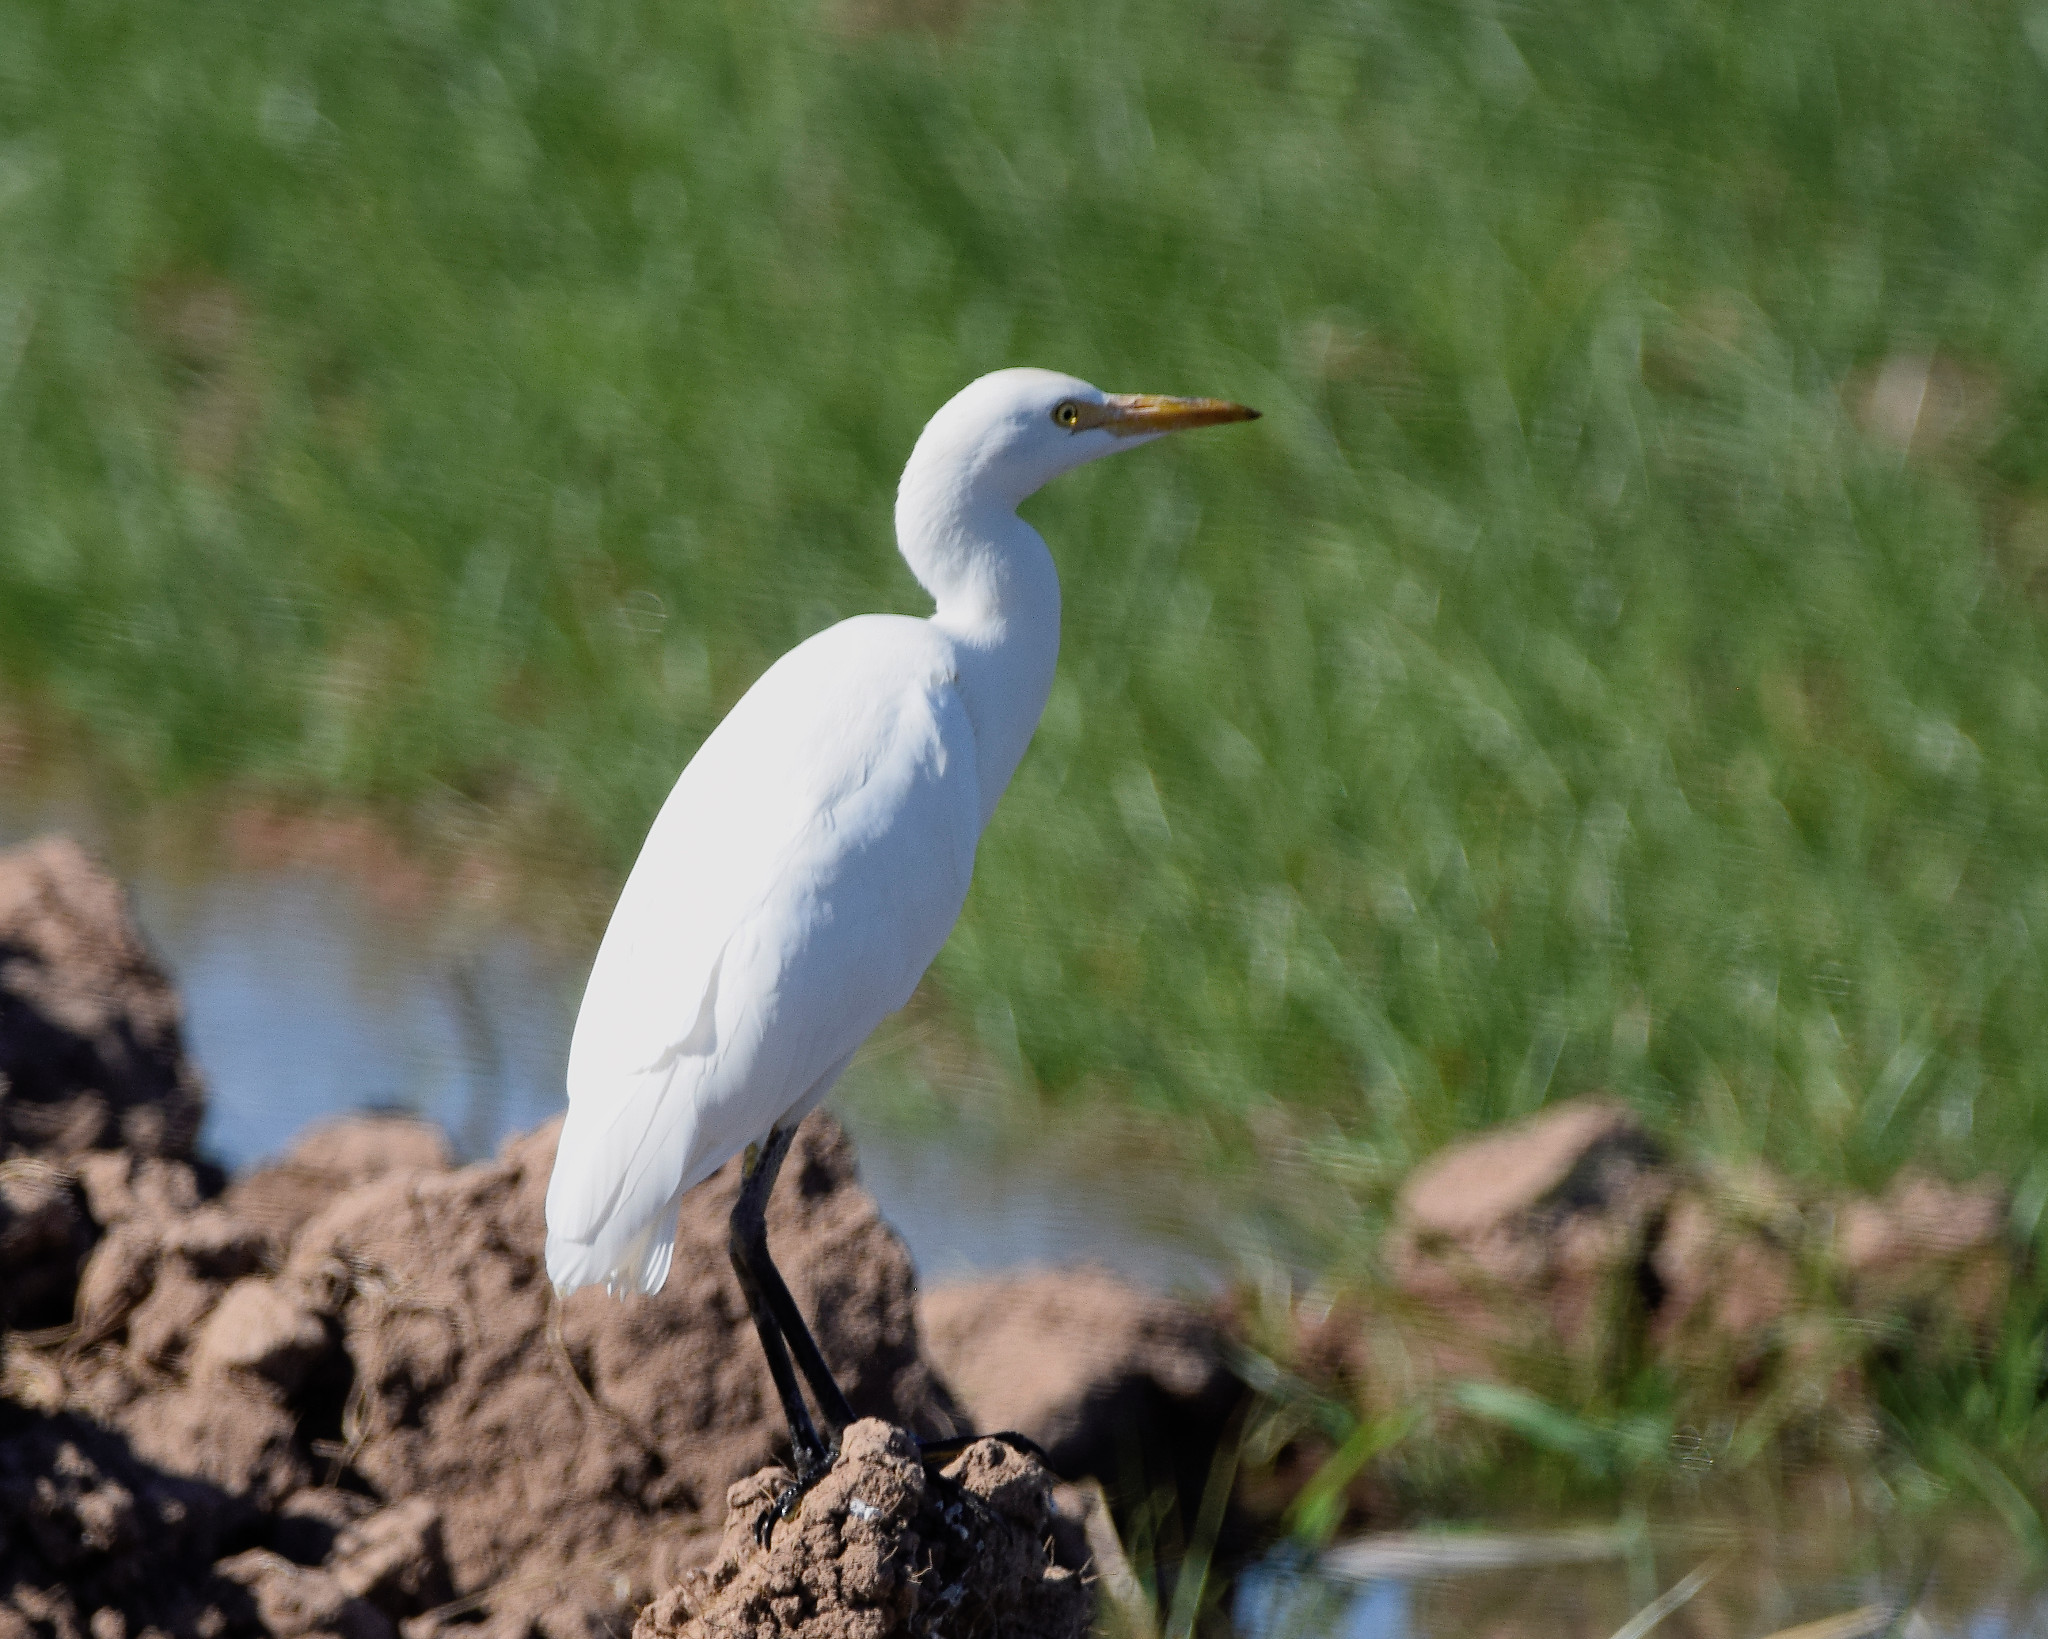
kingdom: Animalia
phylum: Chordata
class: Aves
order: Pelecaniformes
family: Ardeidae
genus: Bubulcus
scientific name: Bubulcus ibis
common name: Cattle egret
